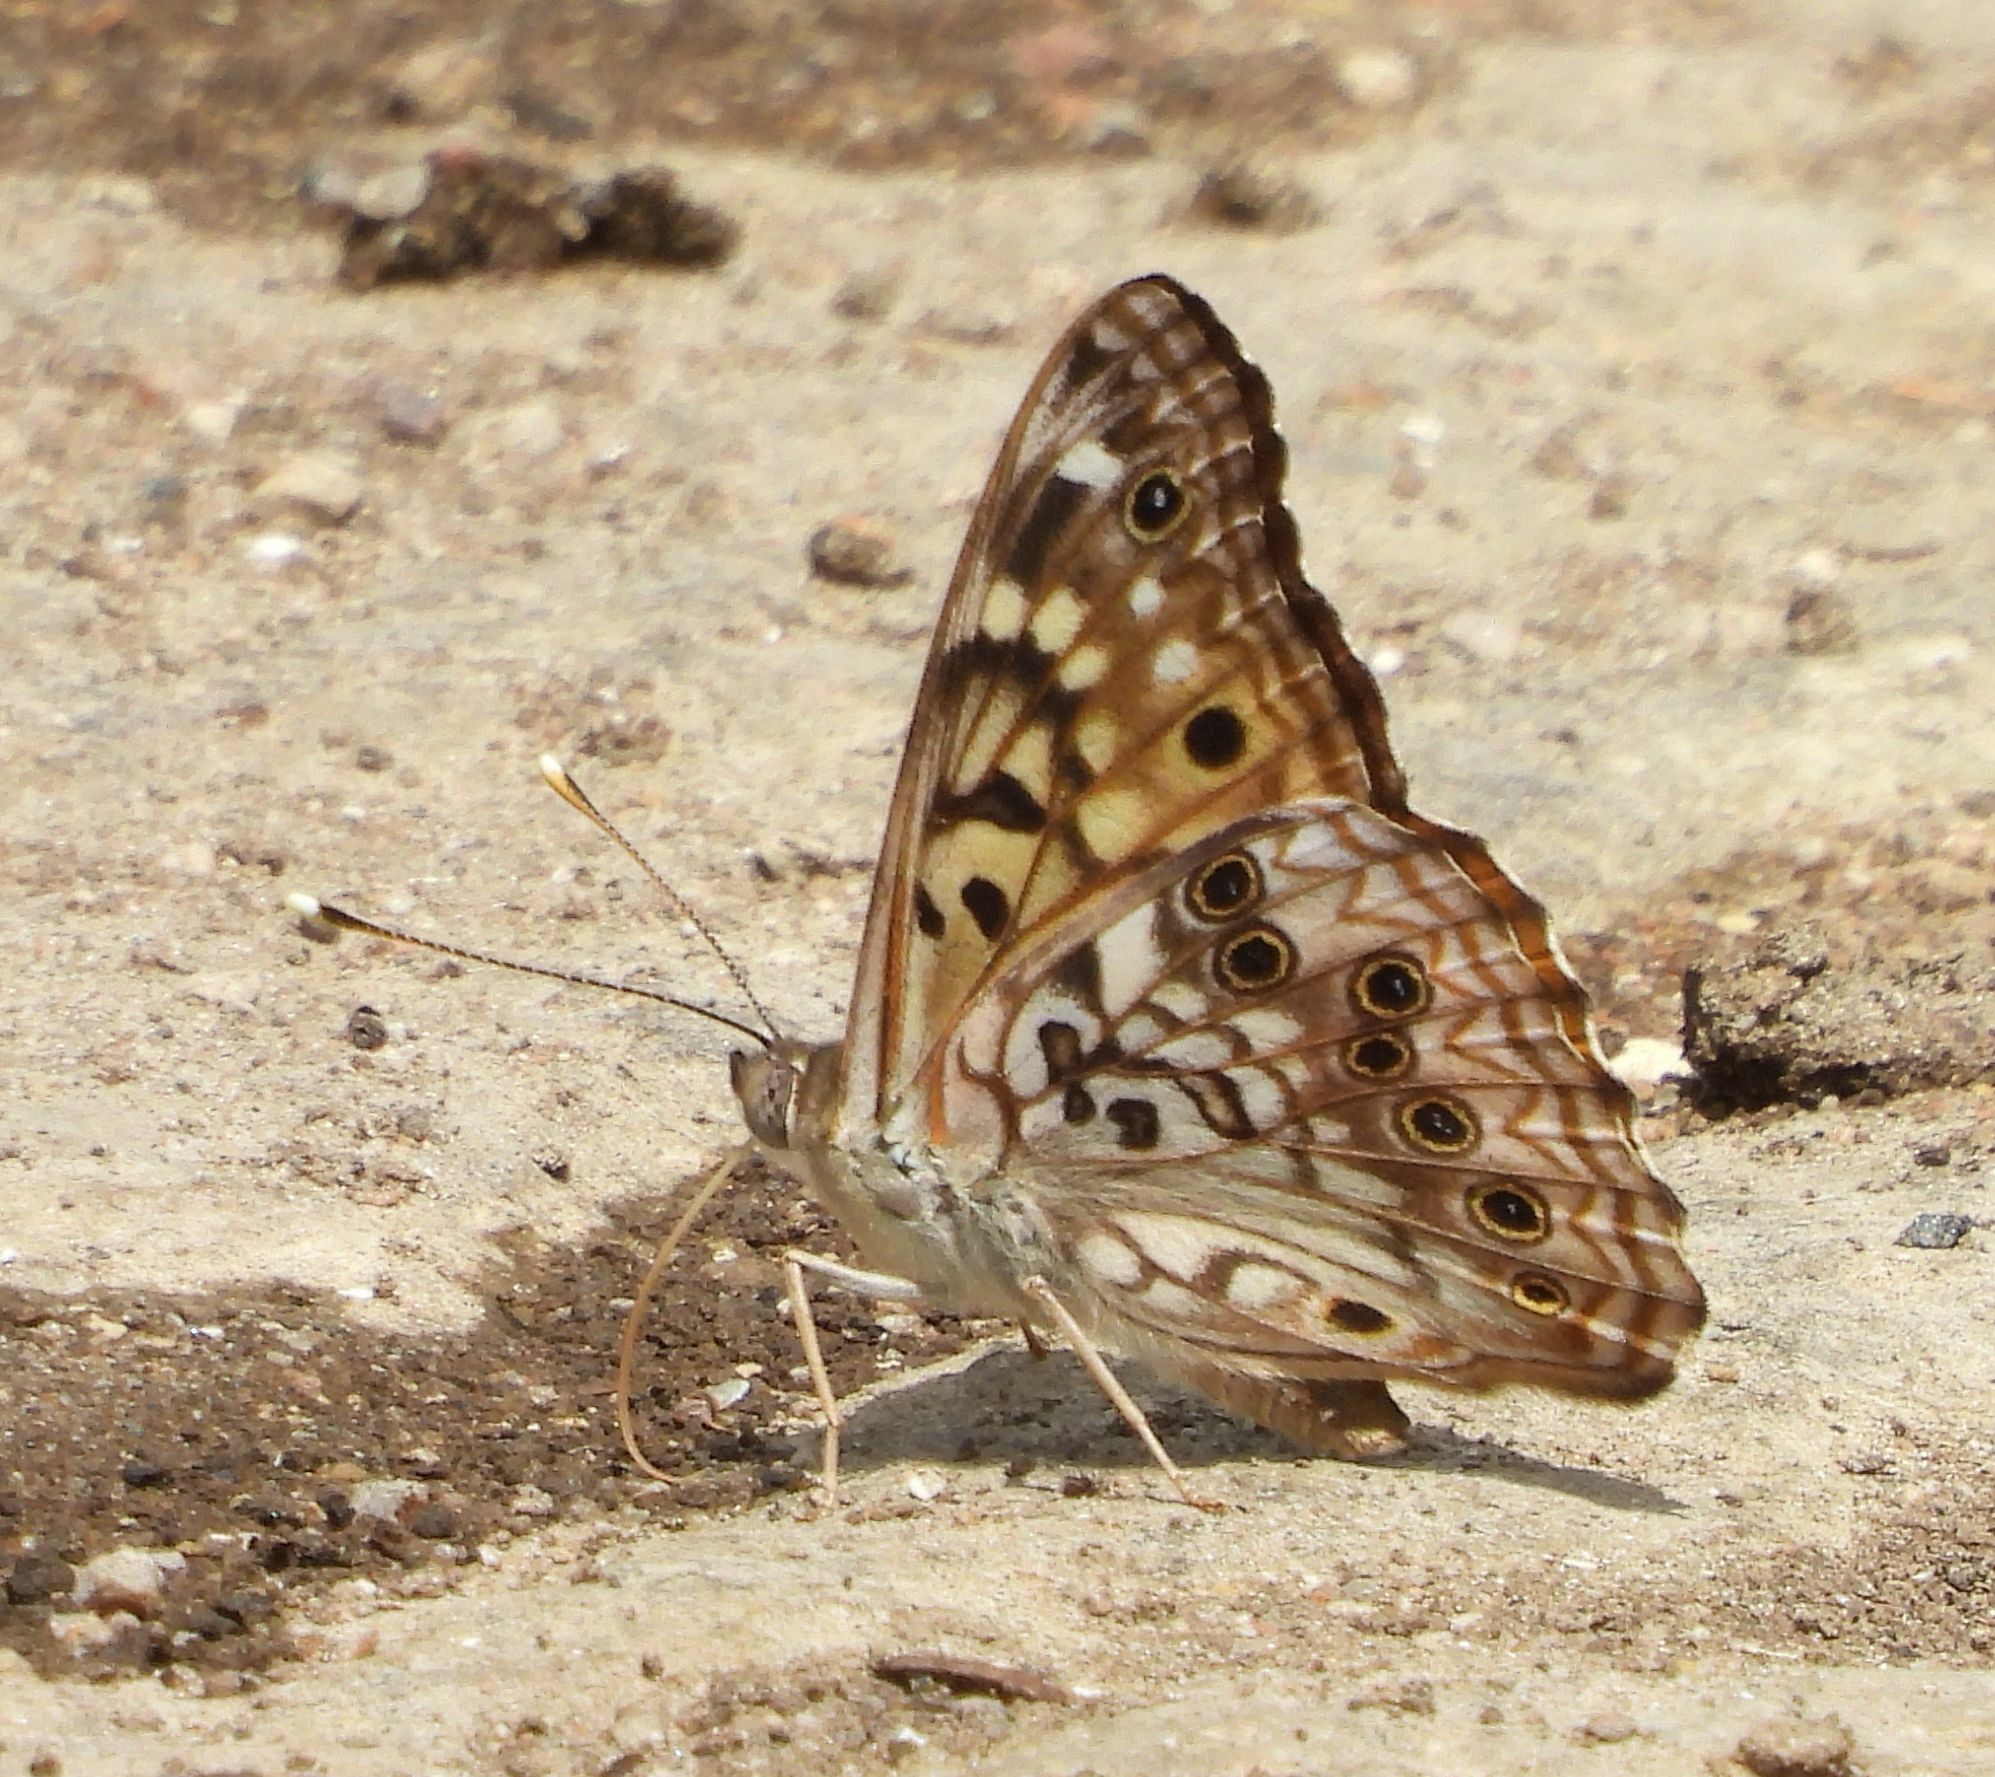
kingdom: Animalia
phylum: Arthropoda
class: Insecta
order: Lepidoptera
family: Nymphalidae
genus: Asterocampa
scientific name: Asterocampa celtis
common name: Hackberry emperor
